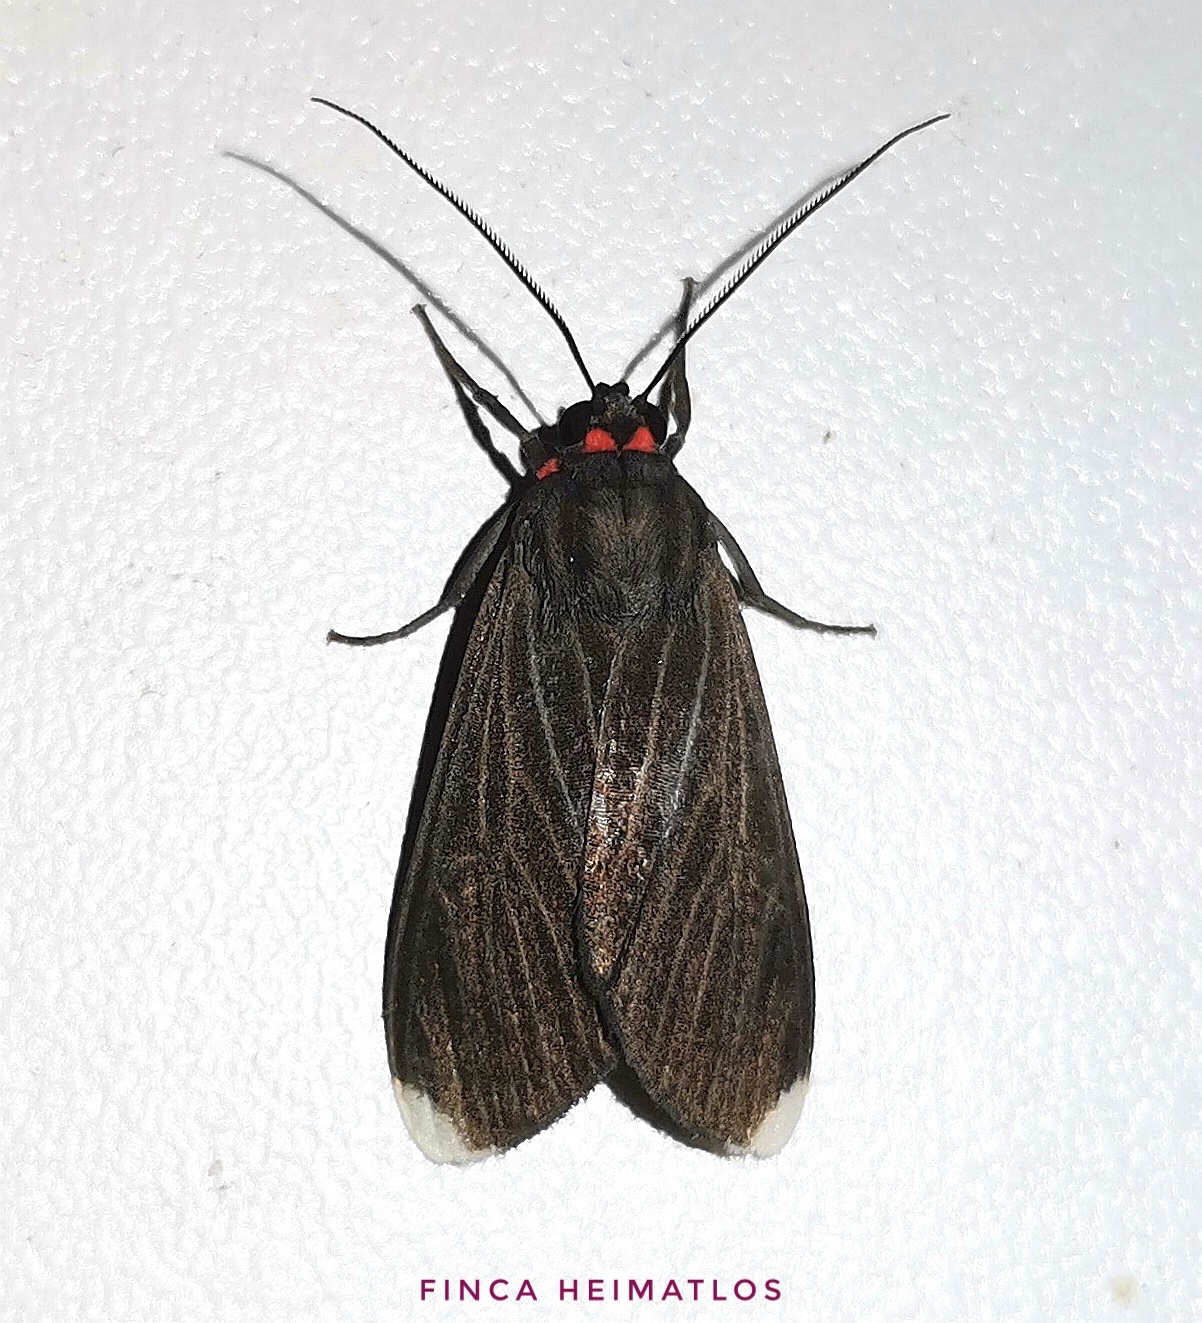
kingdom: Animalia
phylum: Arthropoda
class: Insecta
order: Lepidoptera
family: Erebidae
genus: Episcepsis
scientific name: Episcepsis thetis
